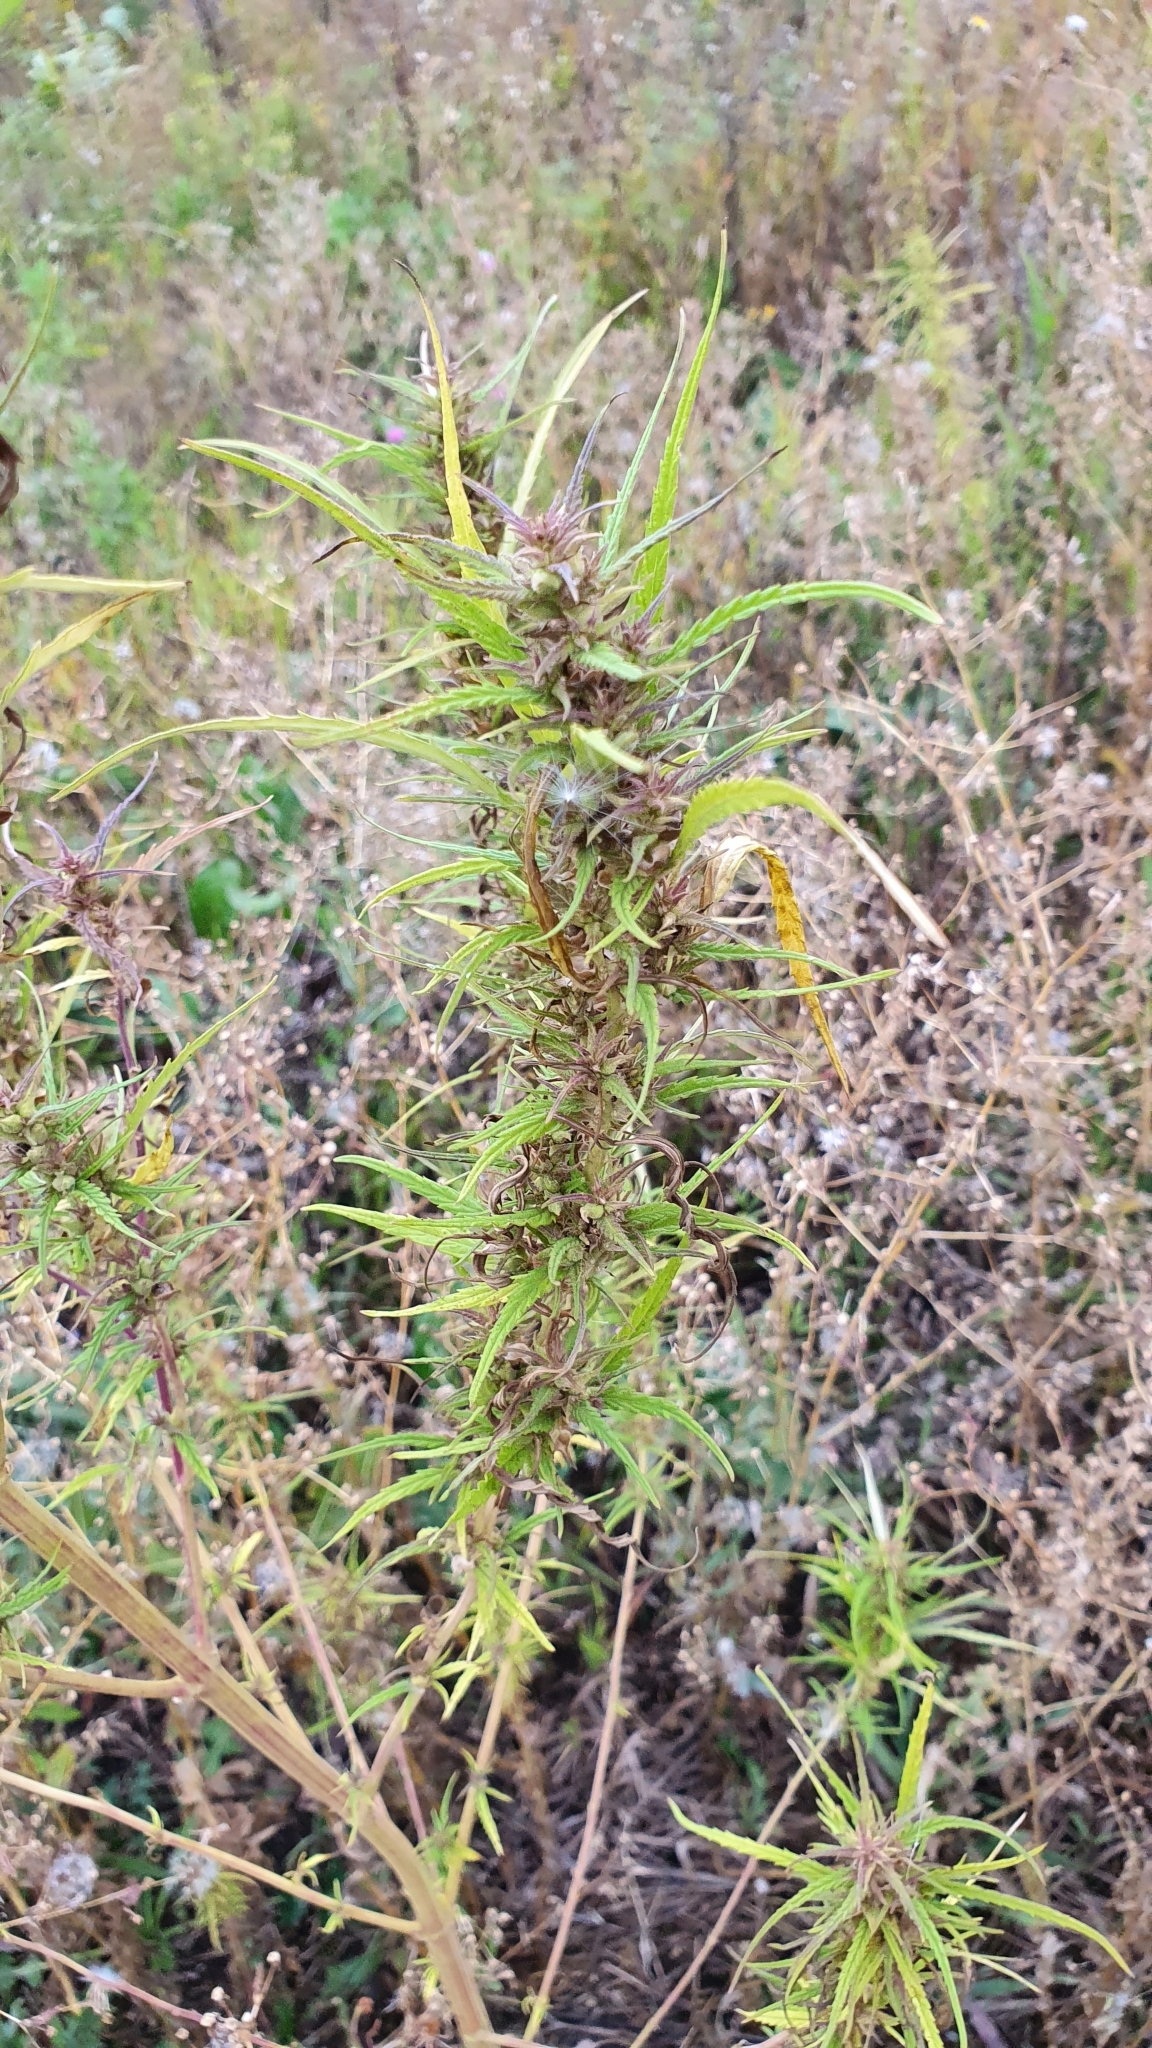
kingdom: Plantae
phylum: Tracheophyta
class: Magnoliopsida
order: Rosales
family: Cannabaceae
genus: Cannabis
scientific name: Cannabis sativa
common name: Hemp
